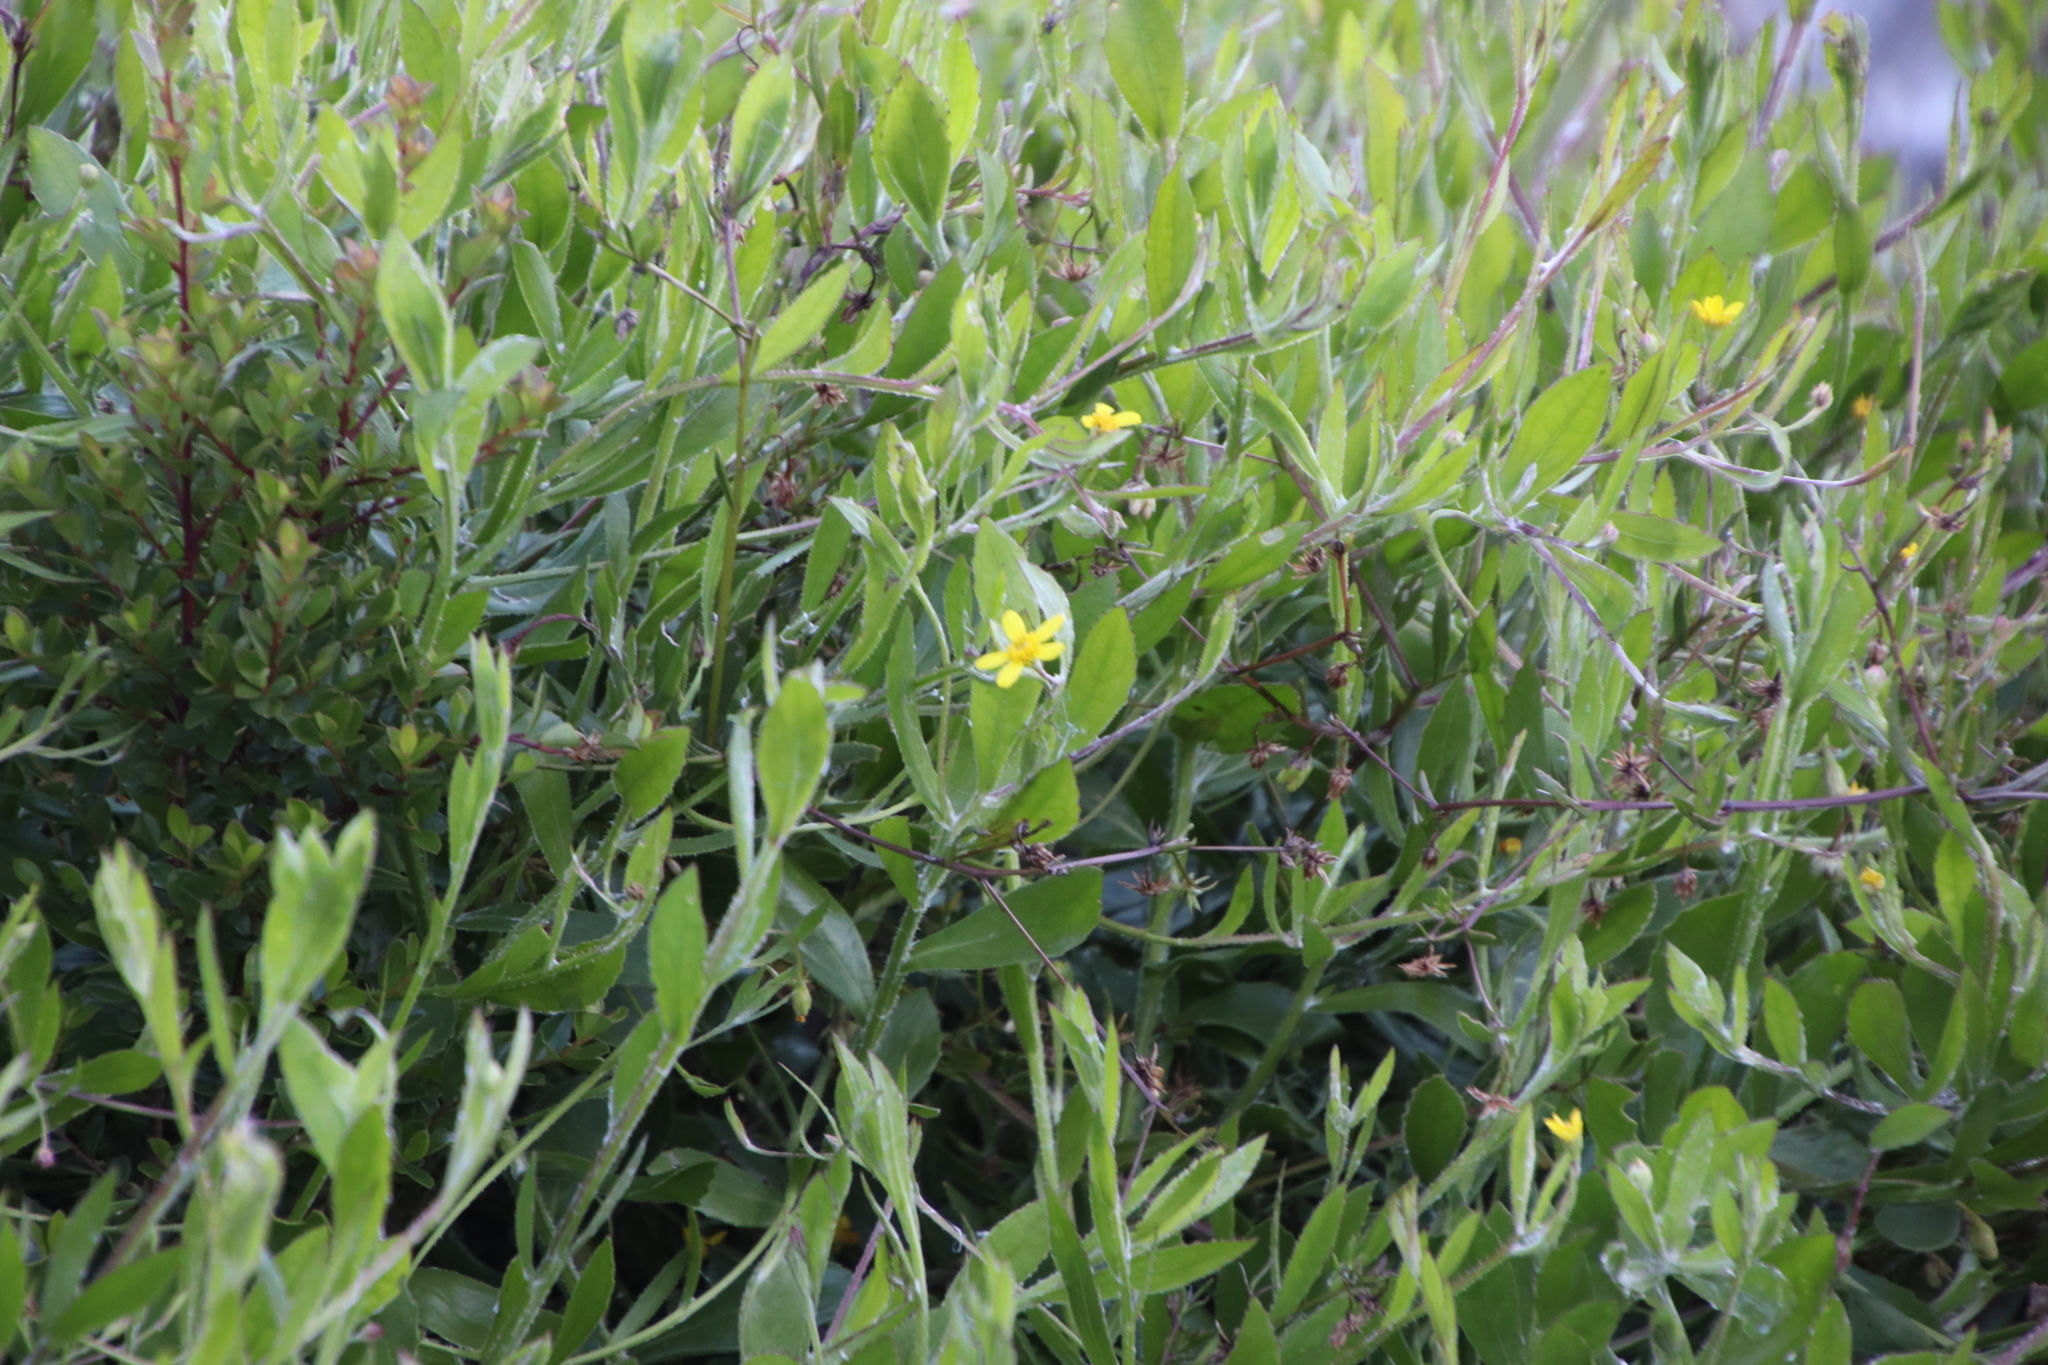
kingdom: Plantae
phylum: Tracheophyta
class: Magnoliopsida
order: Asterales
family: Asteraceae
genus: Osteospermum
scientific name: Osteospermum ciliatum
